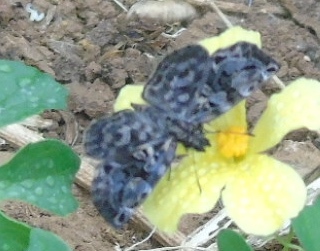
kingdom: Animalia
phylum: Arthropoda
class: Insecta
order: Lepidoptera
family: Hesperiidae
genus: Gorgythion
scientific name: Gorgythion begga
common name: Variegated skipper
